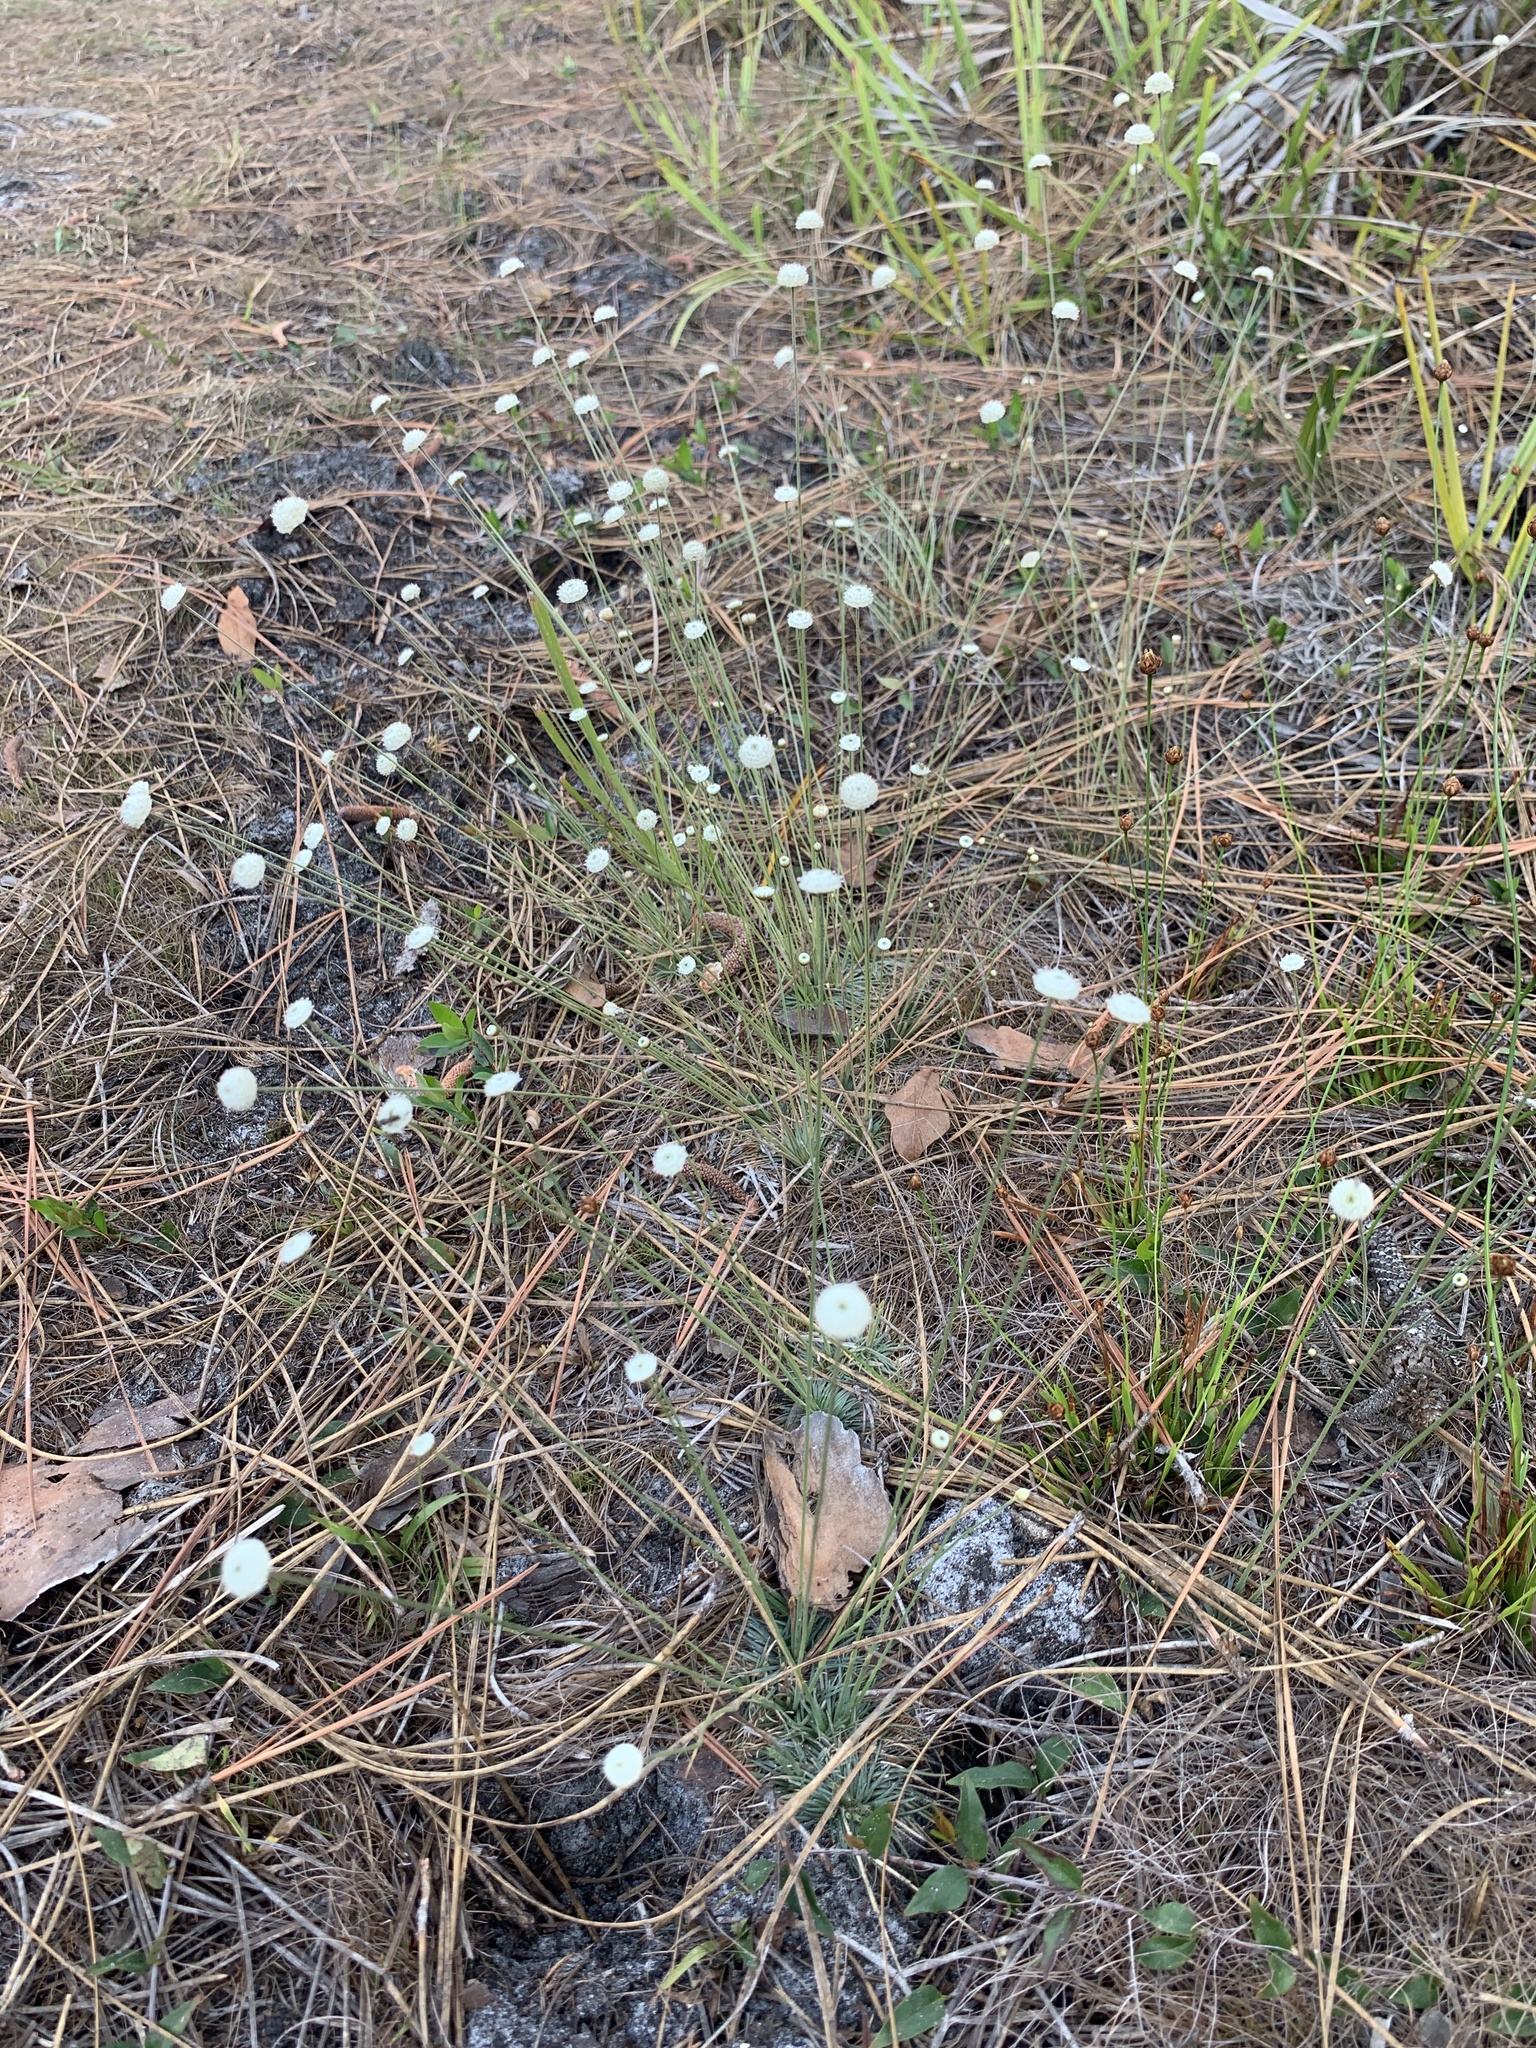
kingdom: Plantae
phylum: Tracheophyta
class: Liliopsida
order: Poales
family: Eriocaulaceae
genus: Syngonanthus
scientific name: Syngonanthus flavidulus
